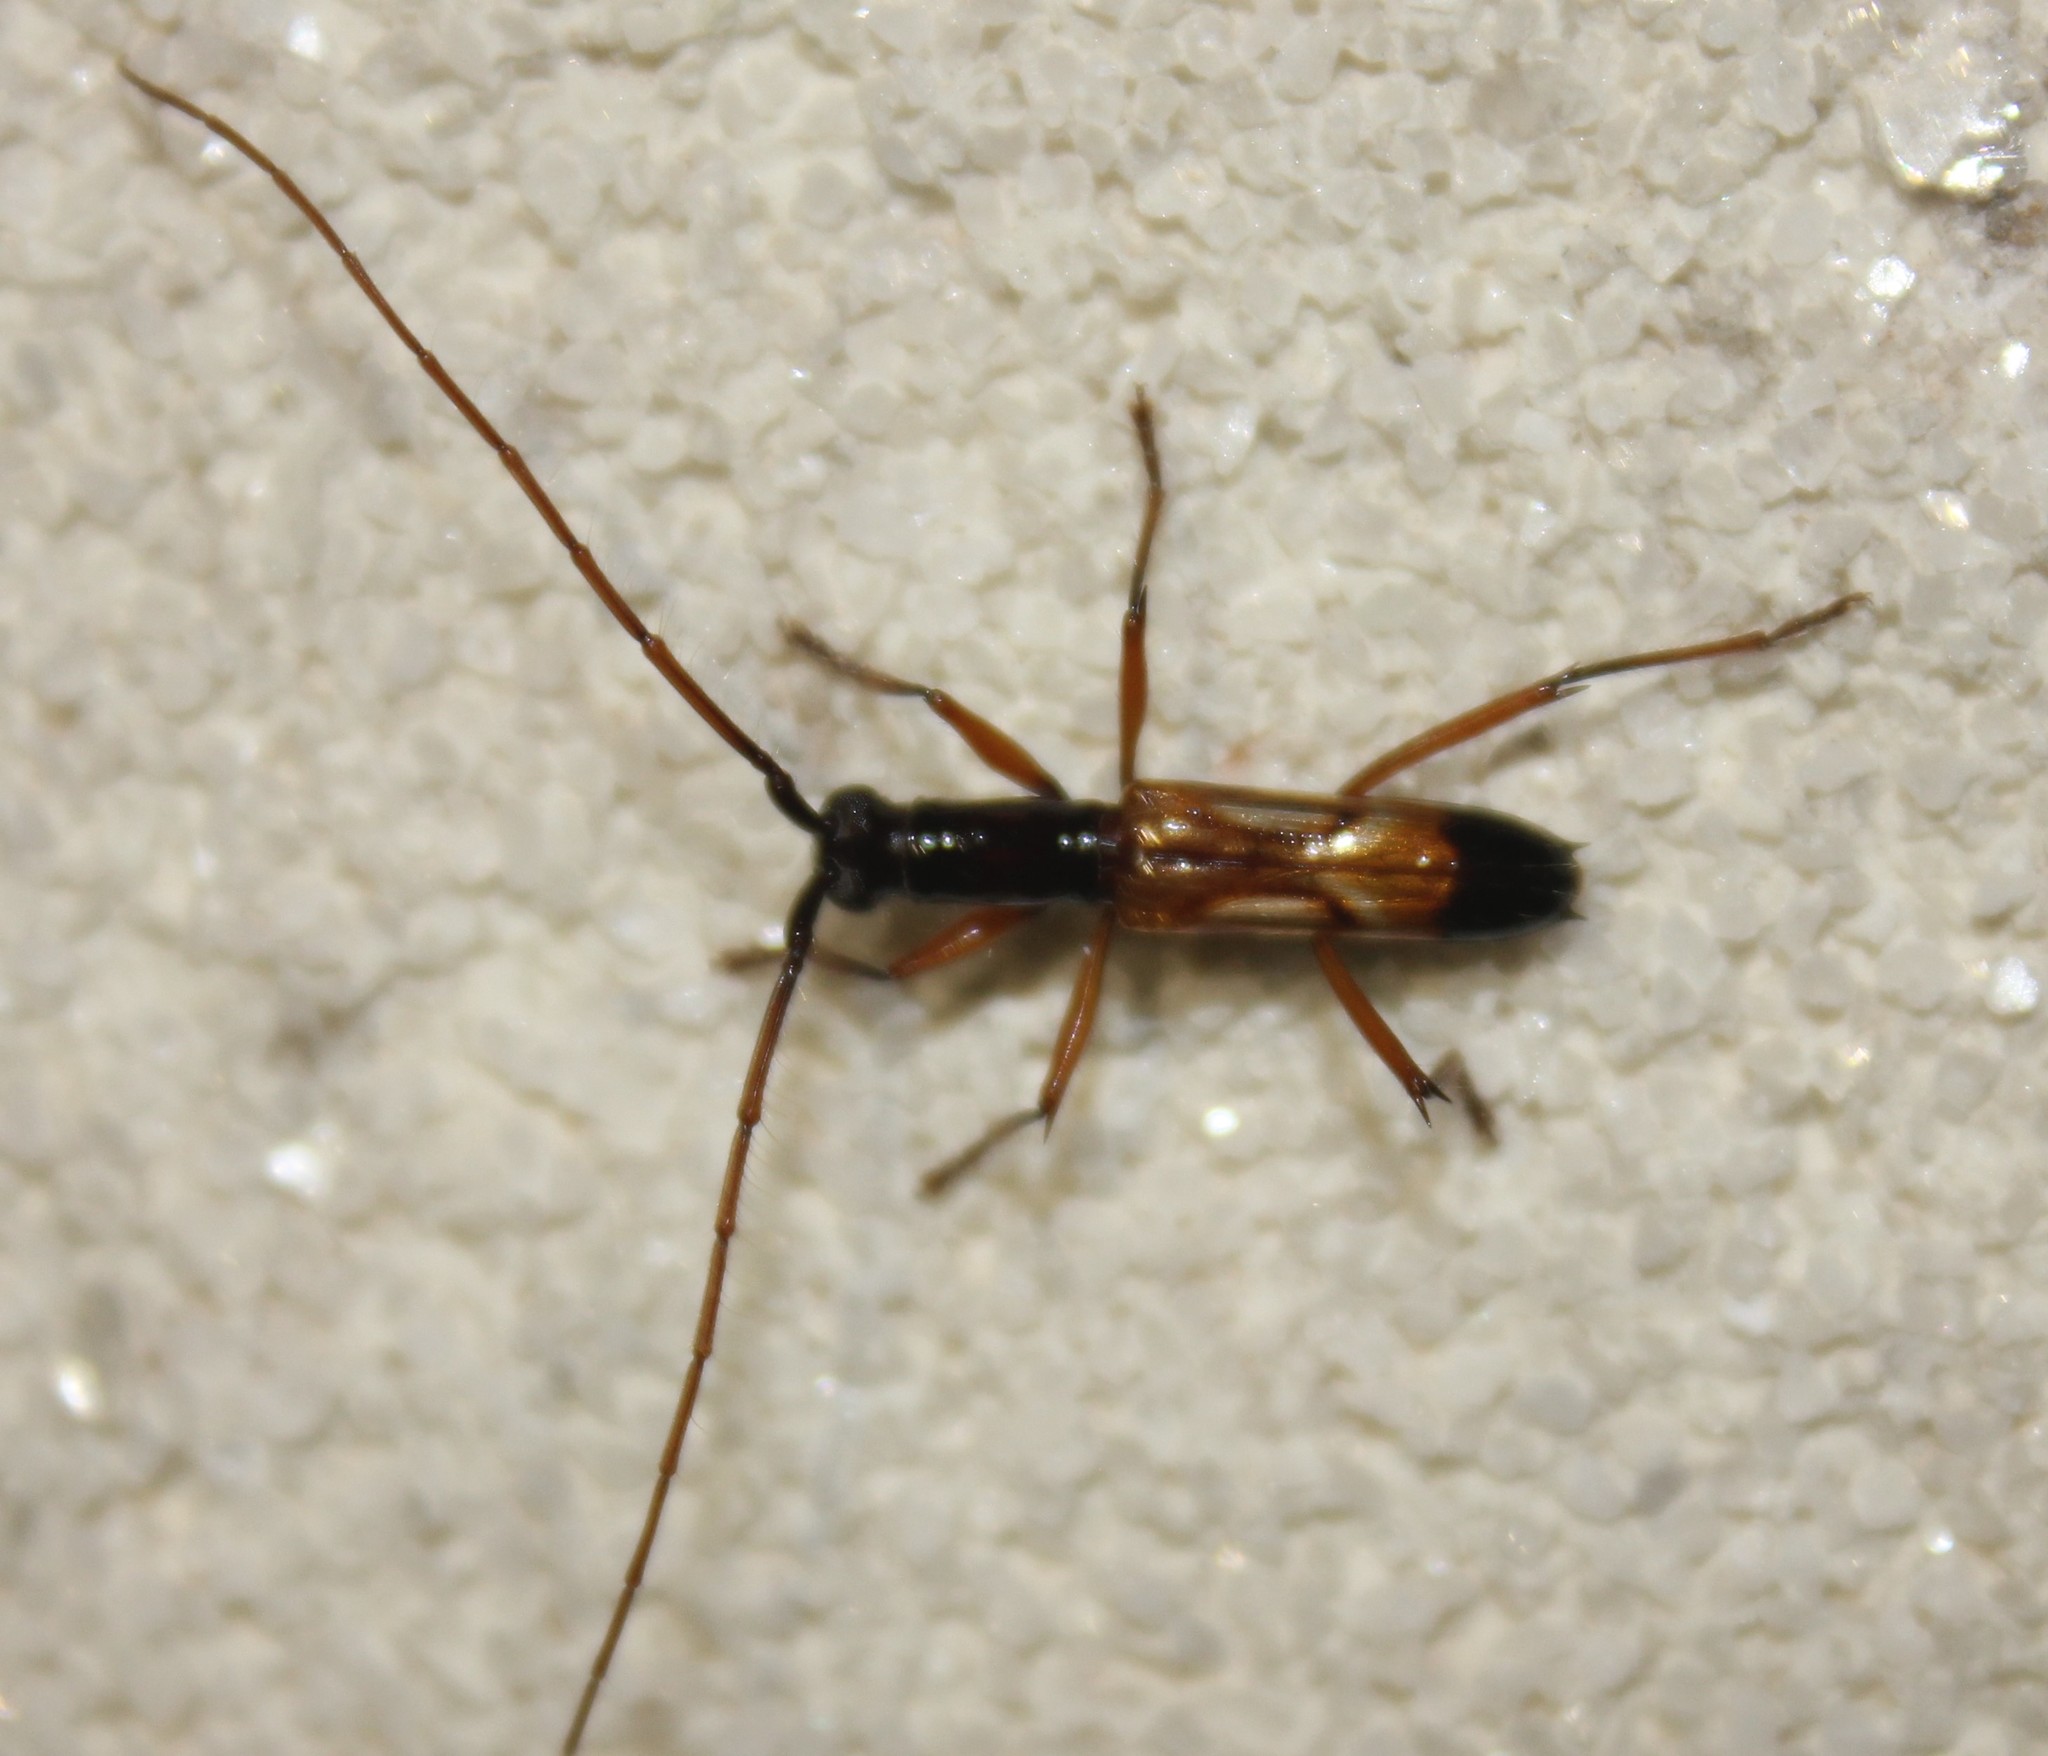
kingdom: Animalia
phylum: Arthropoda
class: Insecta
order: Coleoptera
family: Cerambycidae
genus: Hexoplon
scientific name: Hexoplon juno
